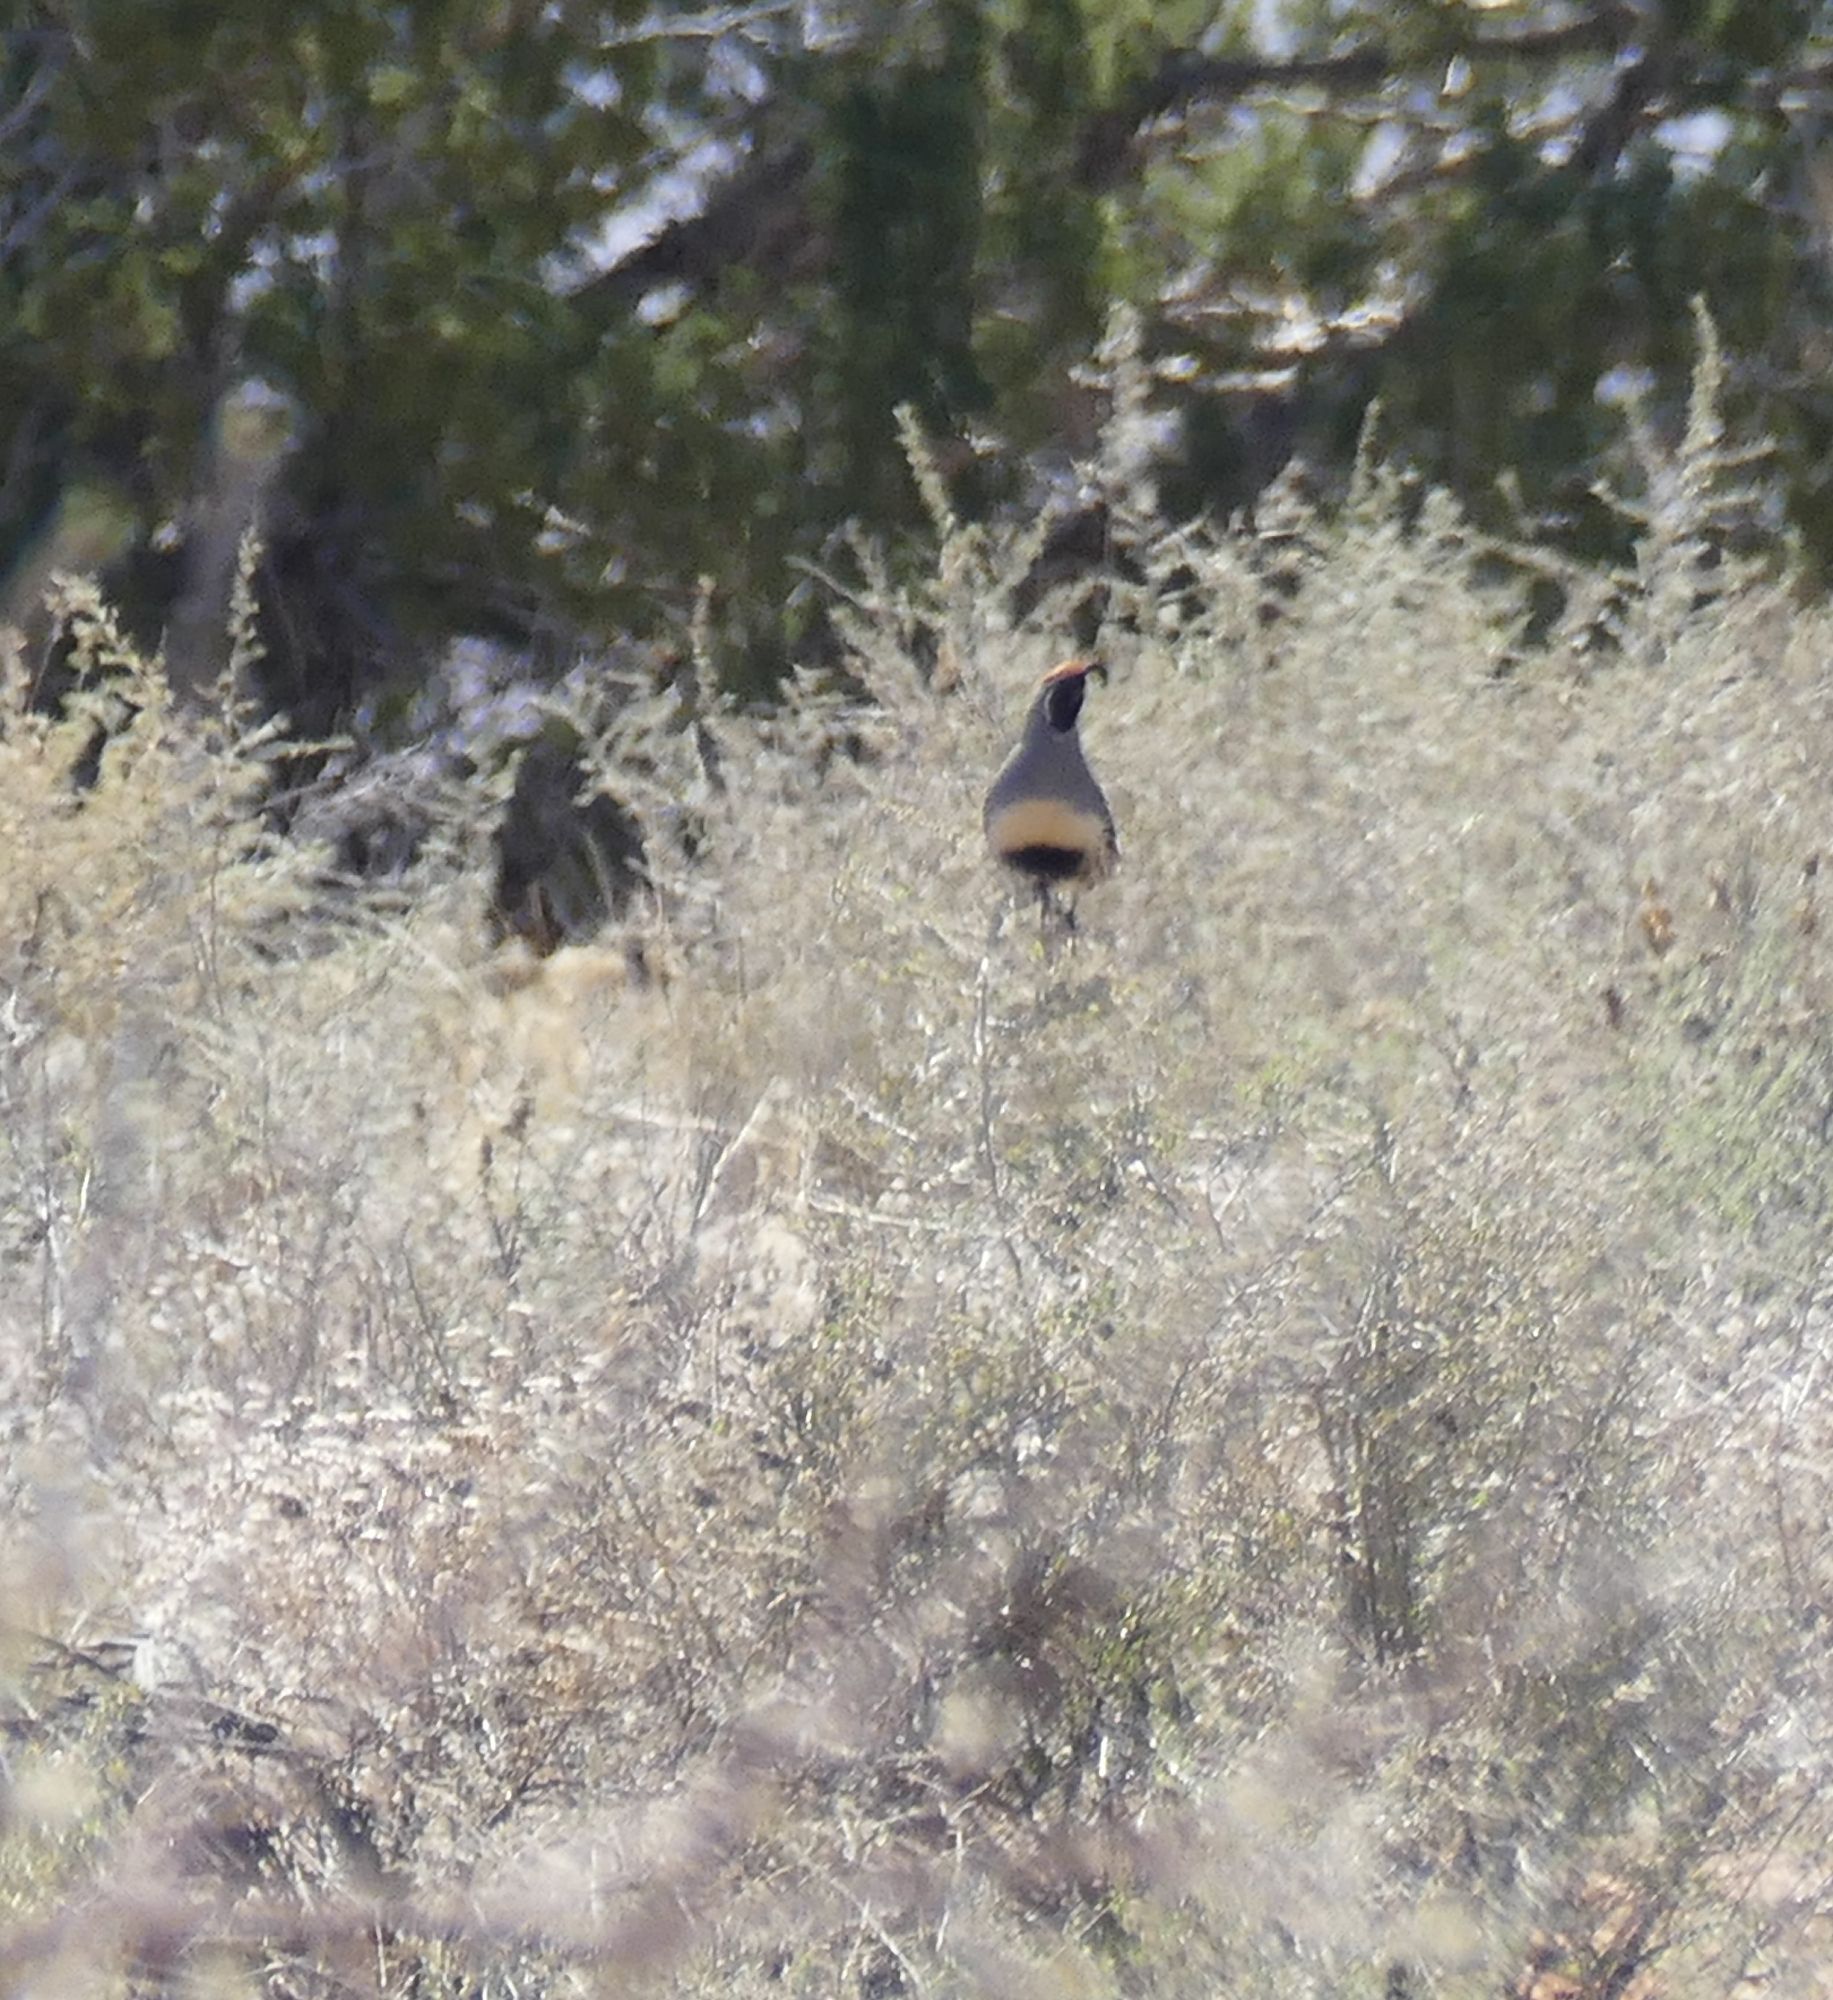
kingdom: Animalia
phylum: Chordata
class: Aves
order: Galliformes
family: Odontophoridae
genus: Callipepla
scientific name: Callipepla gambelii
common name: Gambel's quail
